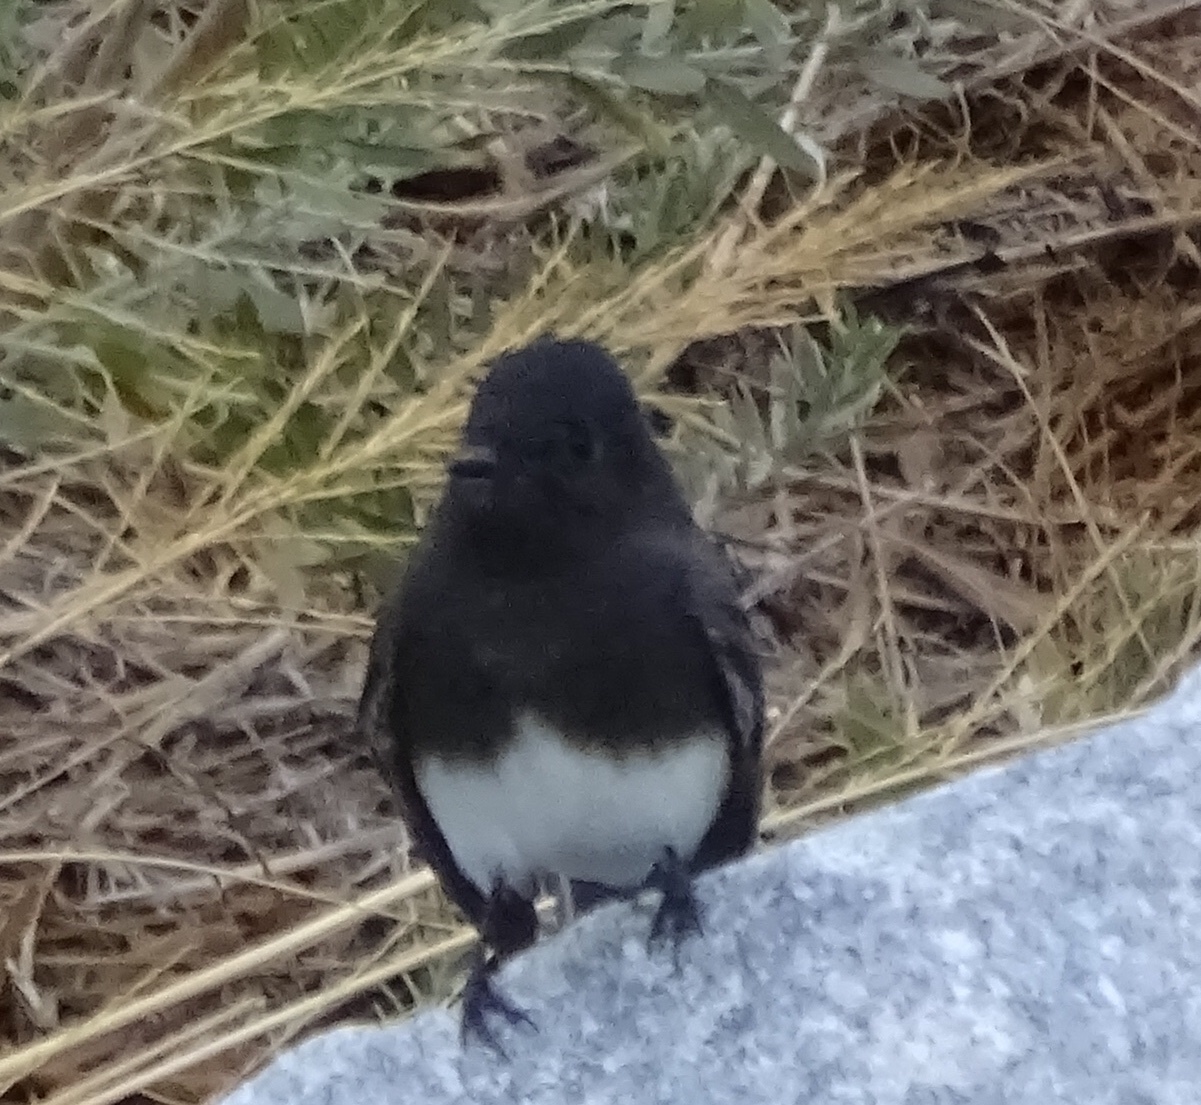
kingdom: Animalia
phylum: Chordata
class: Aves
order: Passeriformes
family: Tyrannidae
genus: Sayornis
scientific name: Sayornis nigricans
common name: Black phoebe
